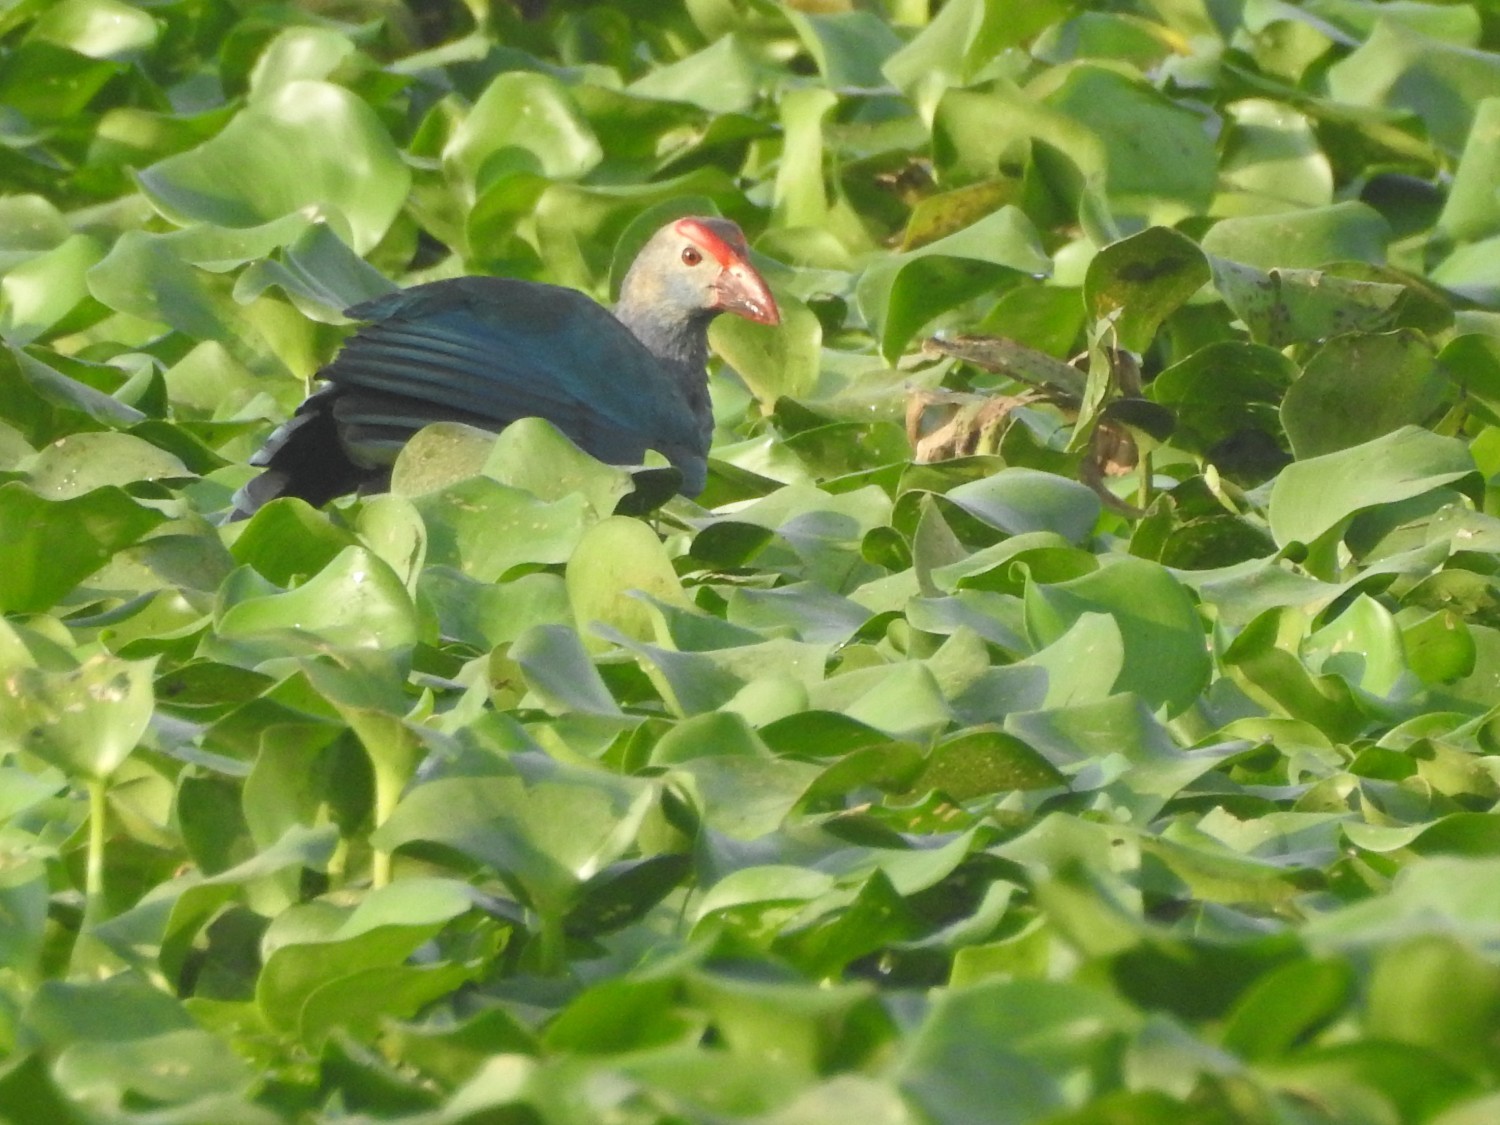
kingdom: Animalia
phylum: Chordata
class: Aves
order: Gruiformes
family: Rallidae
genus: Porphyrio
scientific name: Porphyrio porphyrio
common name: Purple swamphen
